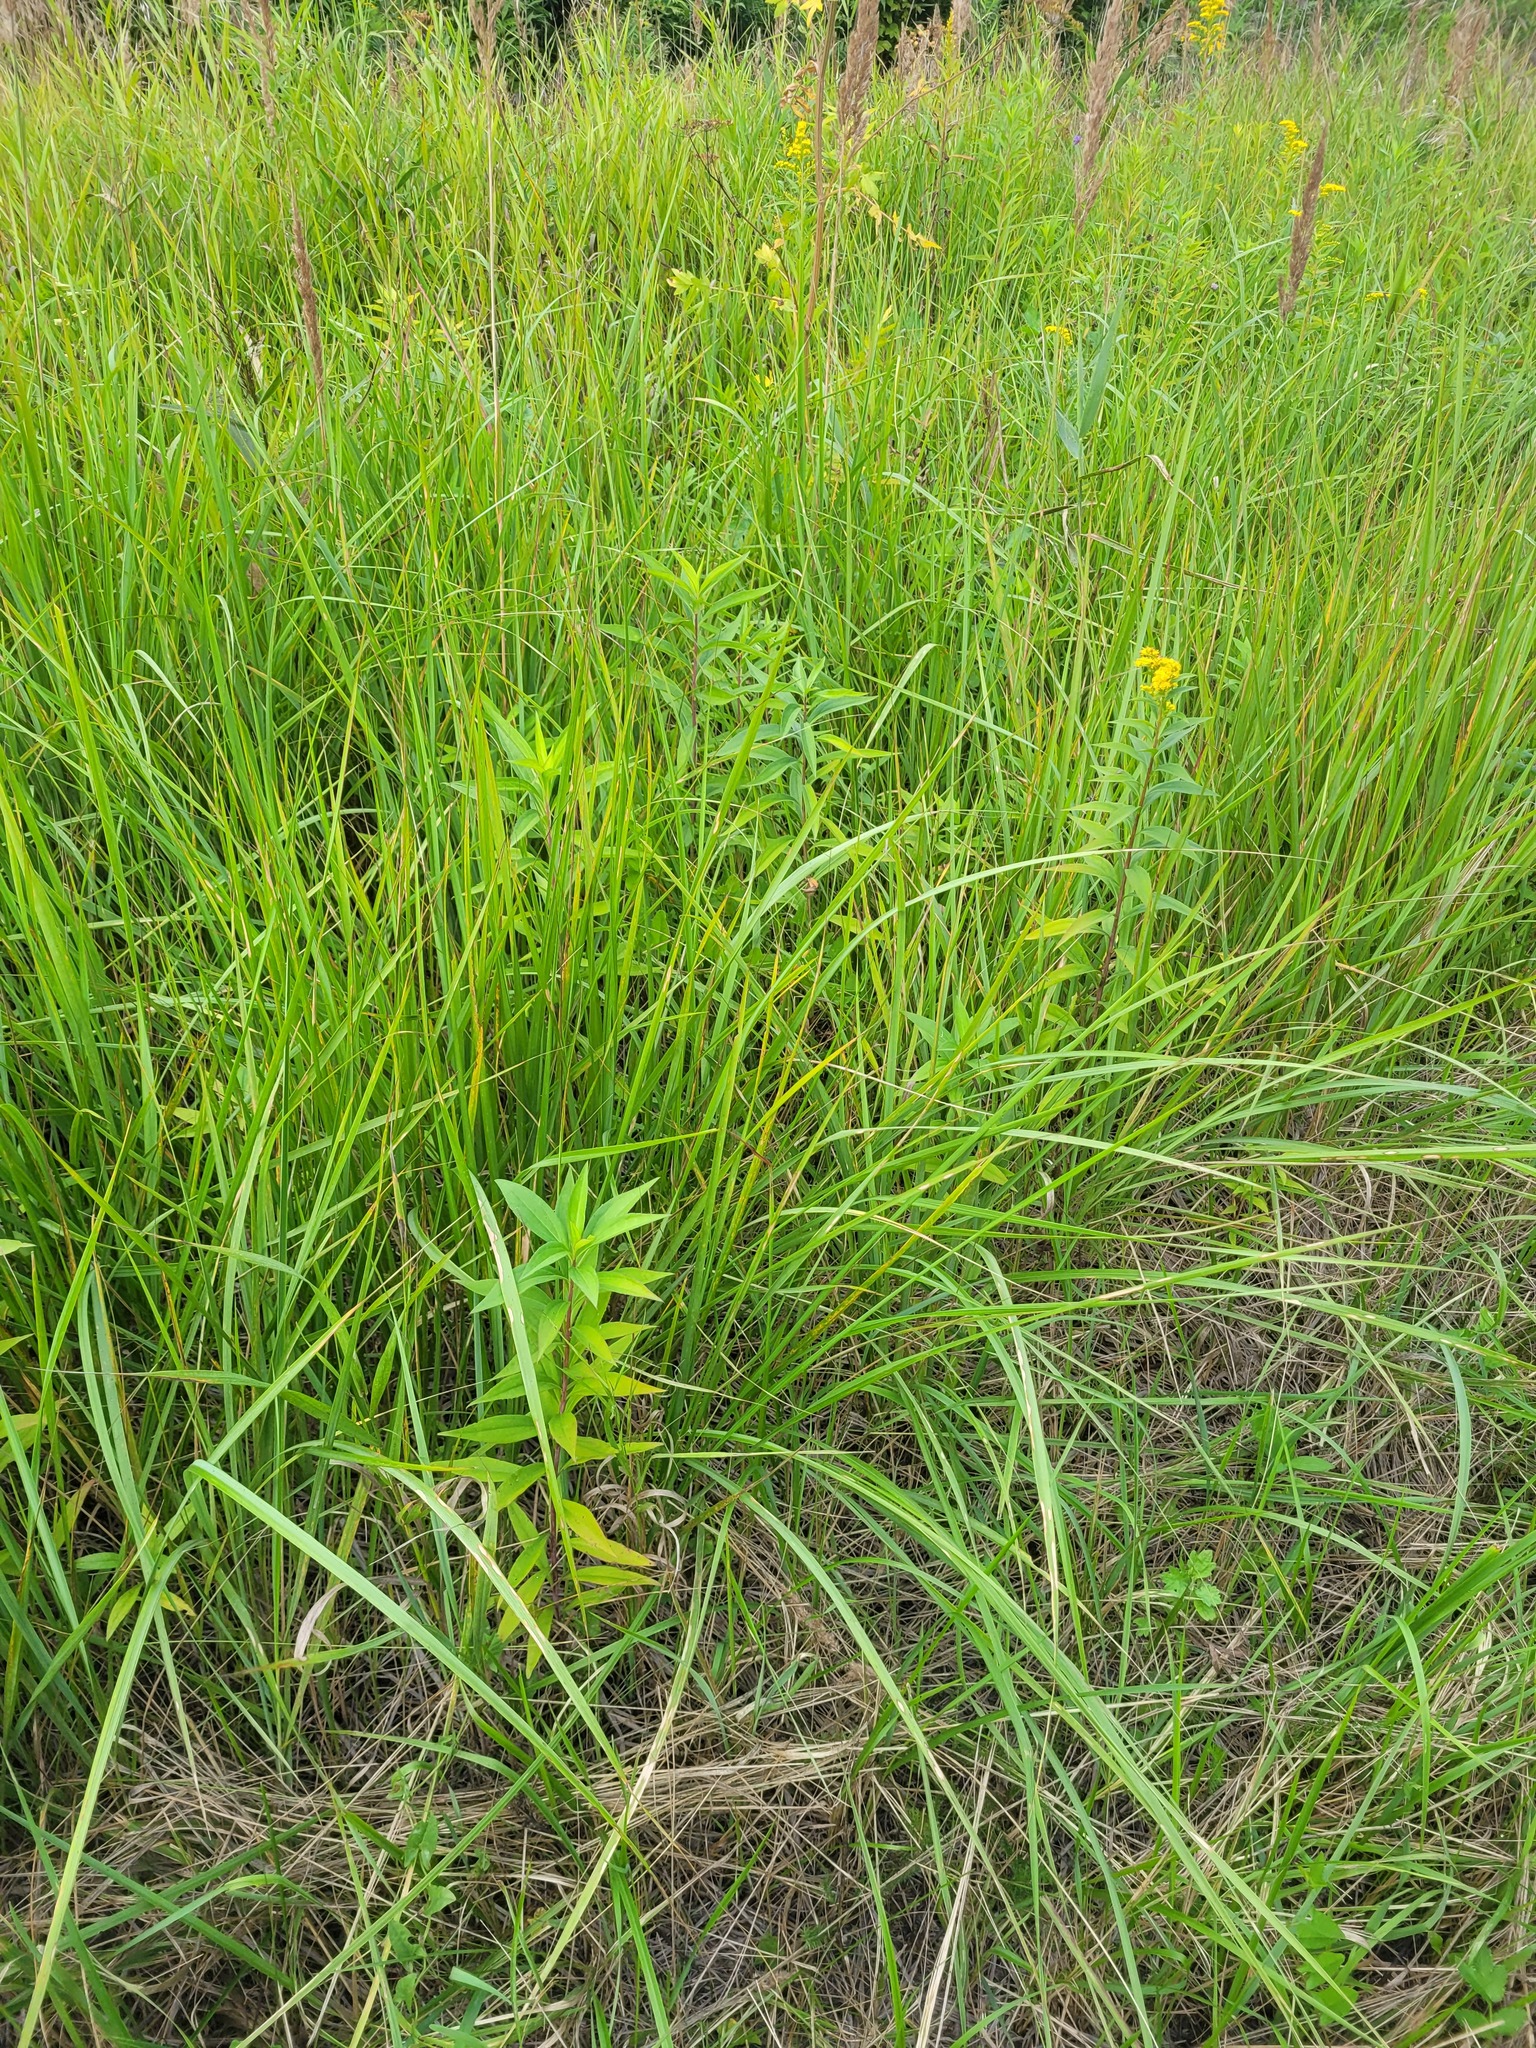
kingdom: Plantae
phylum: Tracheophyta
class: Magnoliopsida
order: Asterales
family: Asteraceae
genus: Solidago
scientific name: Solidago gigantea
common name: Giant goldenrod
